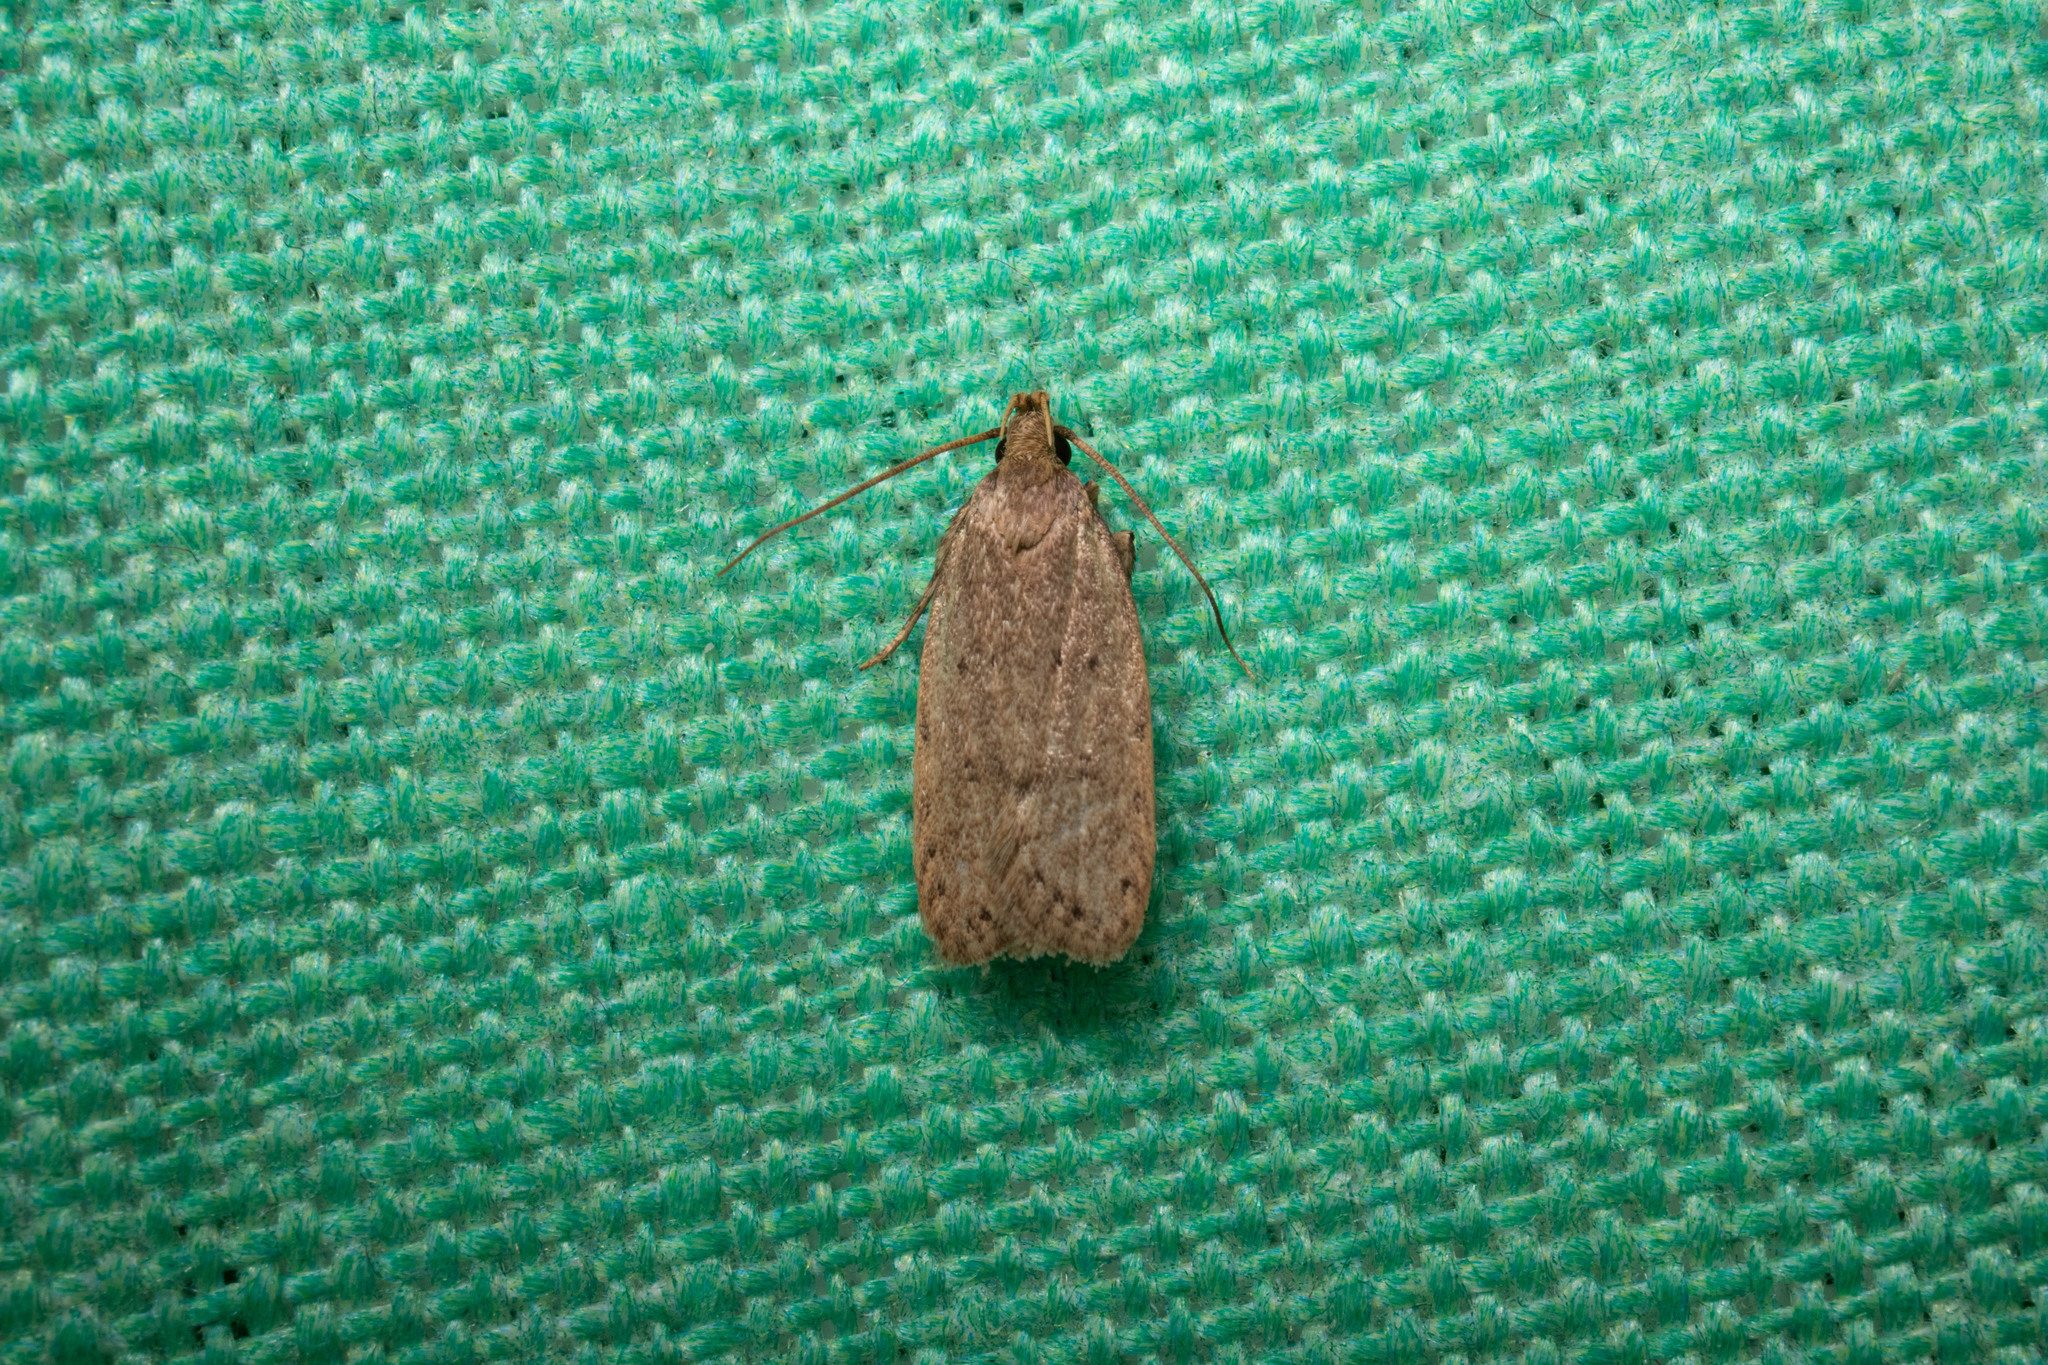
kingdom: Animalia
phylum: Arthropoda
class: Insecta
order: Lepidoptera
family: Autostichidae
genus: Autosticha
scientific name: Autosticha kyotensis
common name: Kyoto moth
